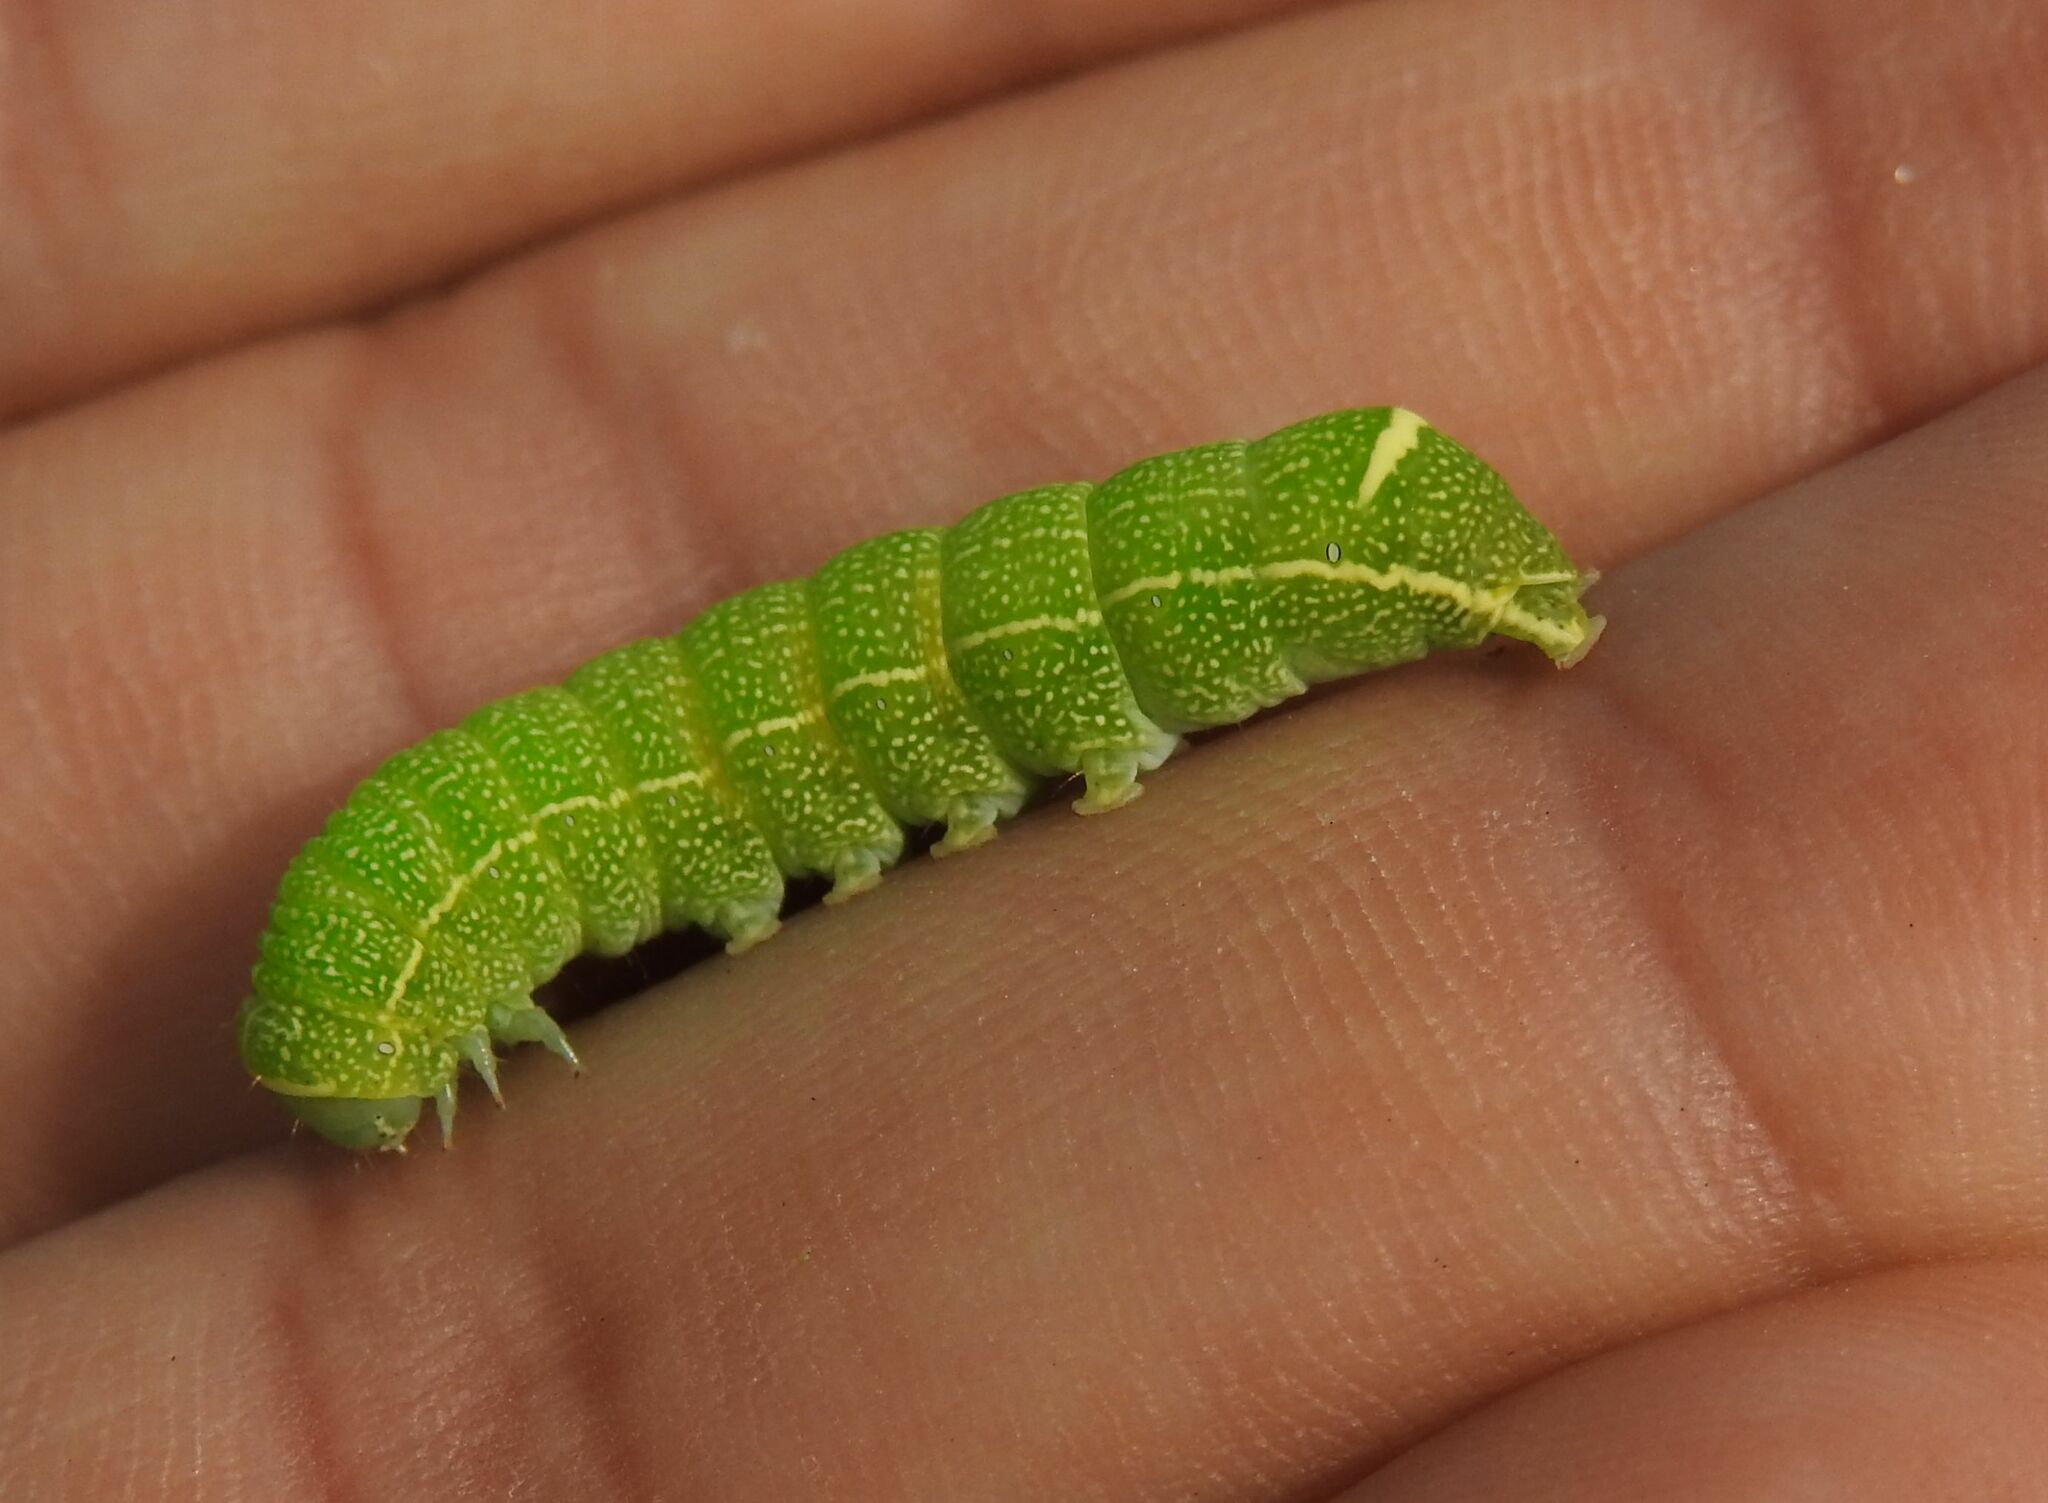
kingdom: Animalia
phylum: Arthropoda
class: Insecta
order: Lepidoptera
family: Noctuidae
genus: Orthosia
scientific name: Orthosia cerasi
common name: Common quaker
